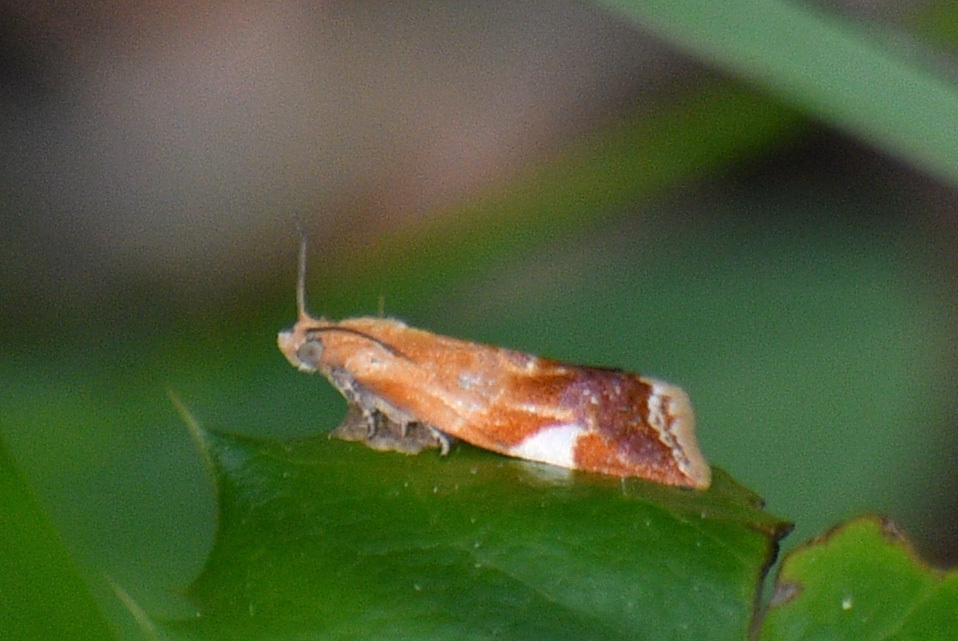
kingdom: Animalia
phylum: Arthropoda
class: Insecta
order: Lepidoptera
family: Tortricidae
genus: Clepsis
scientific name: Clepsis persicana
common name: White triangle tortrix
